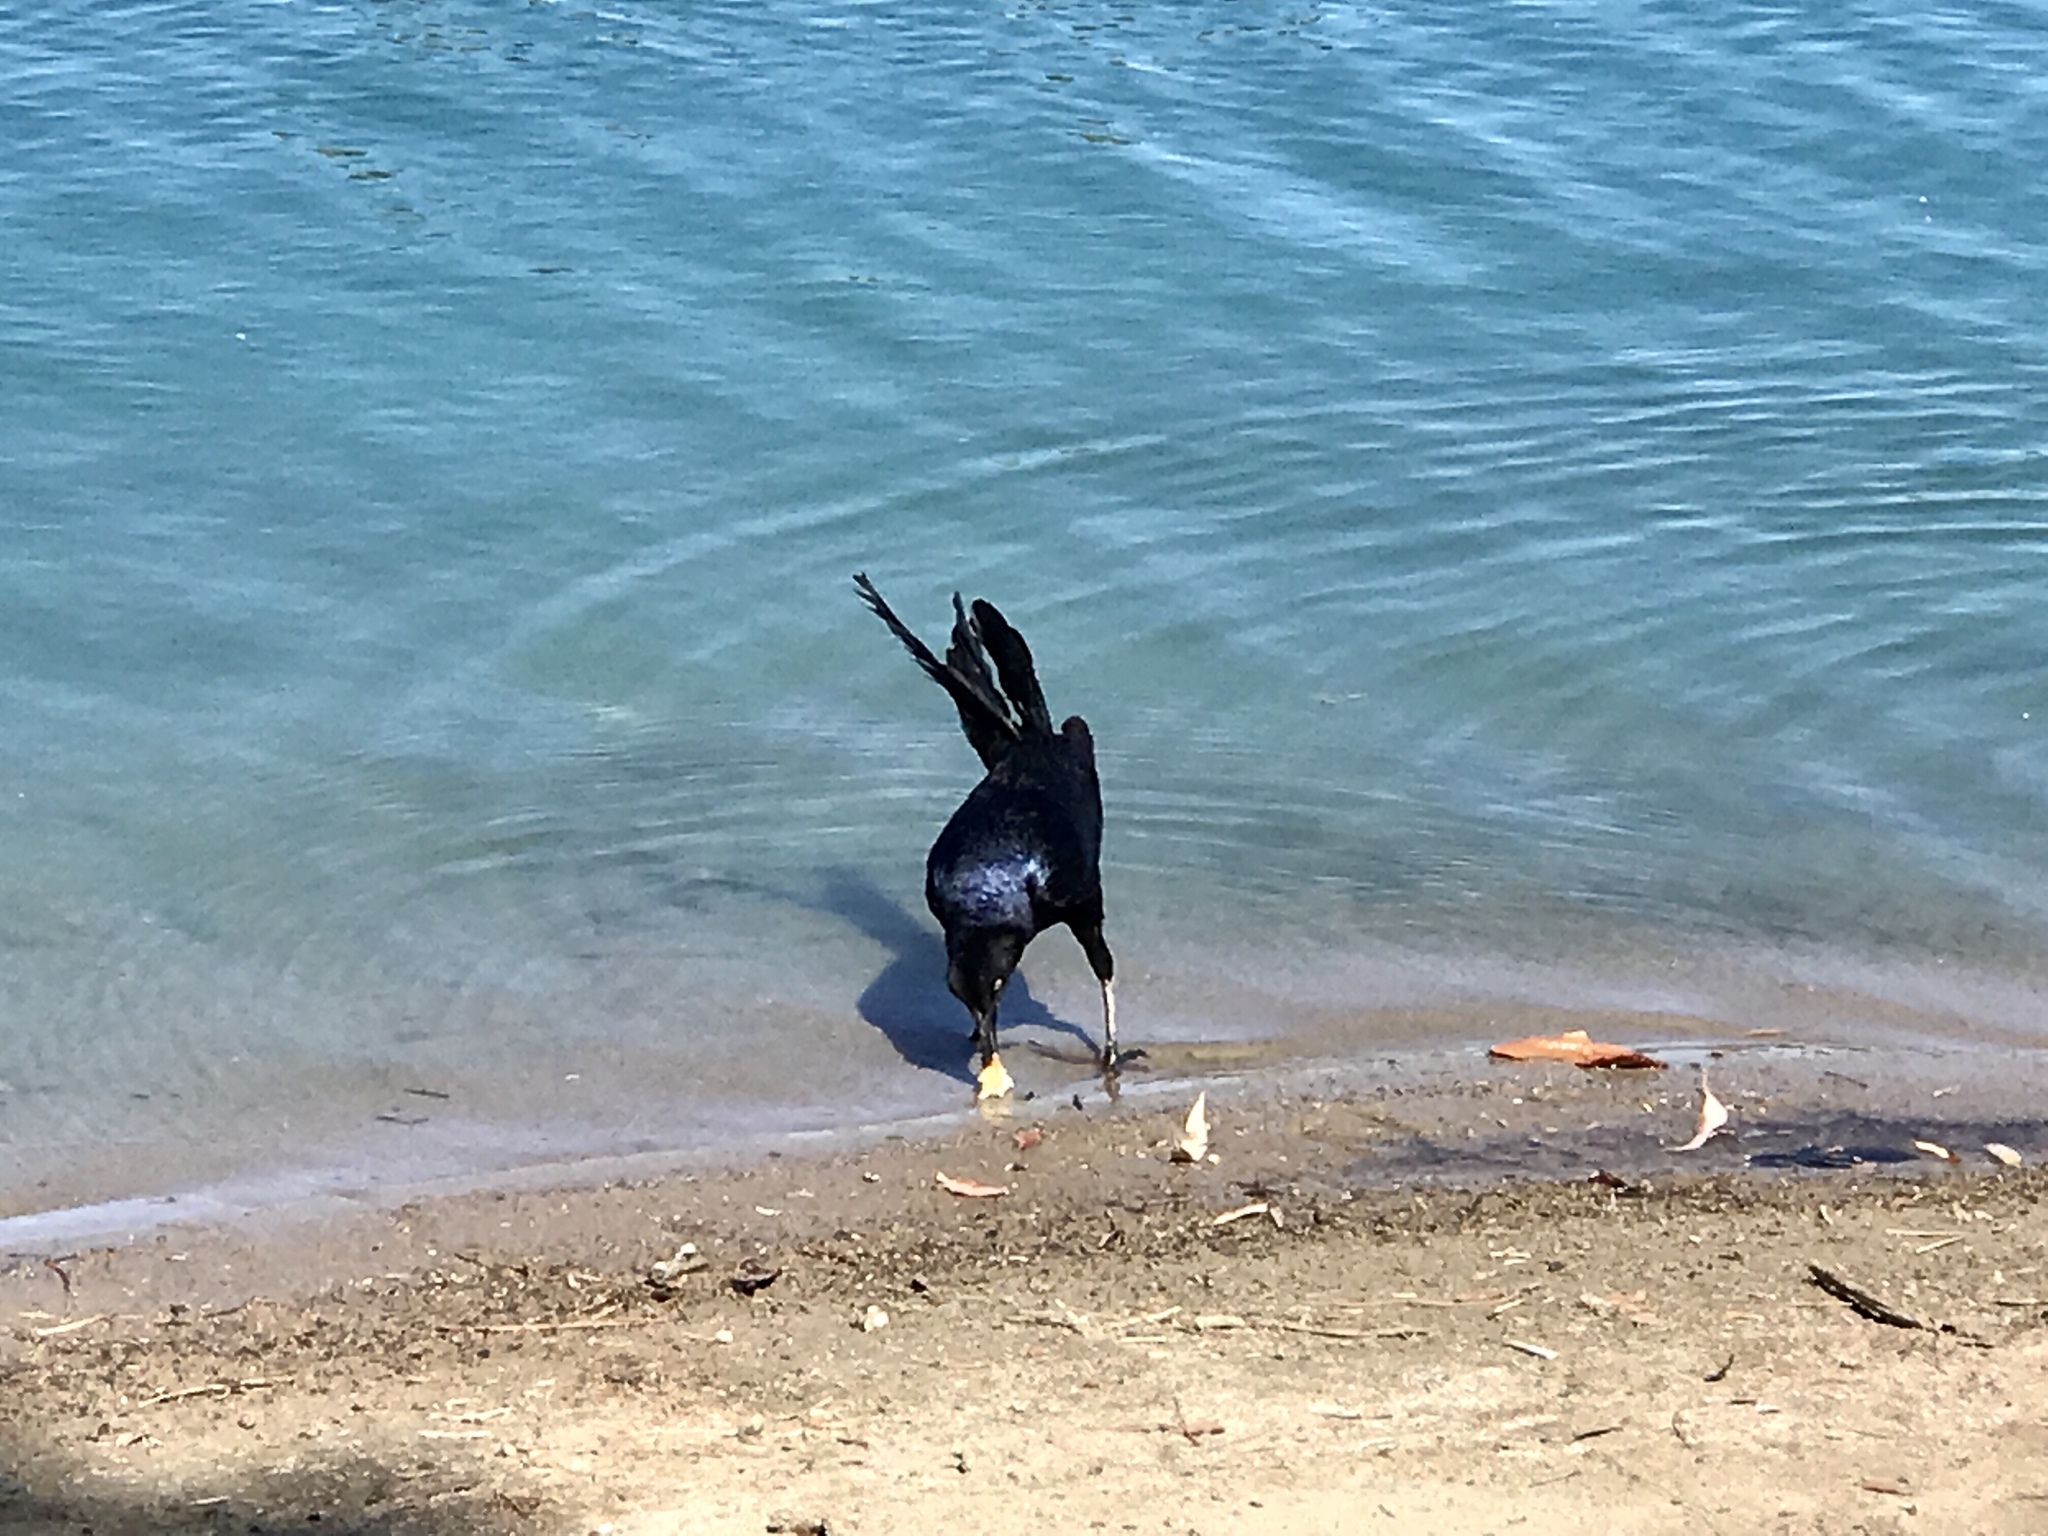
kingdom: Animalia
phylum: Chordata
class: Aves
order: Passeriformes
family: Icteridae
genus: Quiscalus
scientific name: Quiscalus mexicanus
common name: Great-tailed grackle
